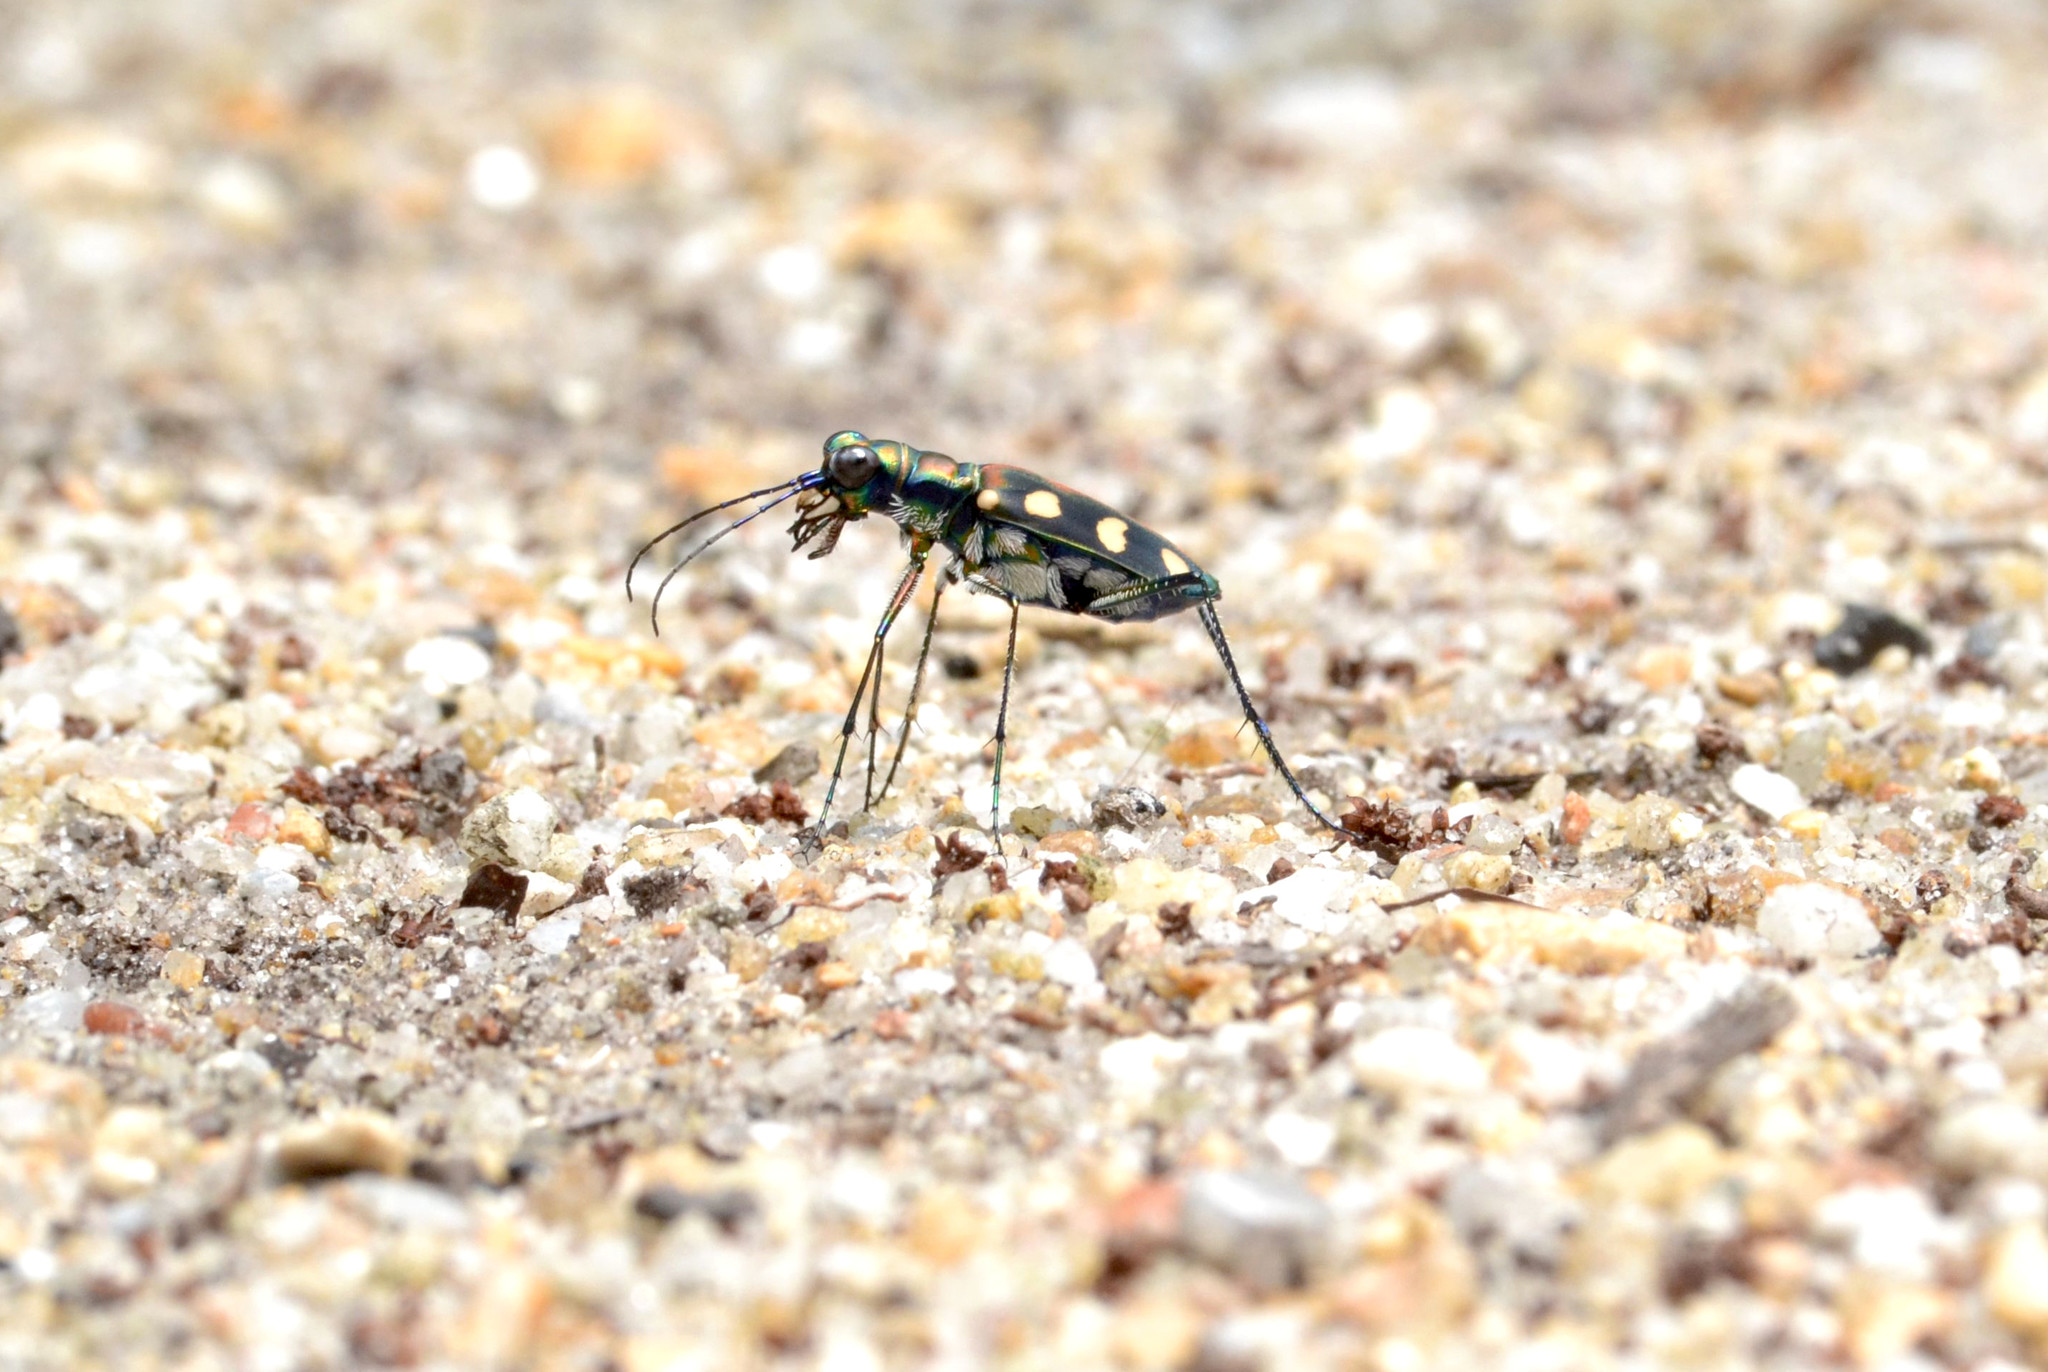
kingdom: Animalia
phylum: Arthropoda
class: Insecta
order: Coleoptera
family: Carabidae
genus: Cicindela
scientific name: Cicindela aurulenta
